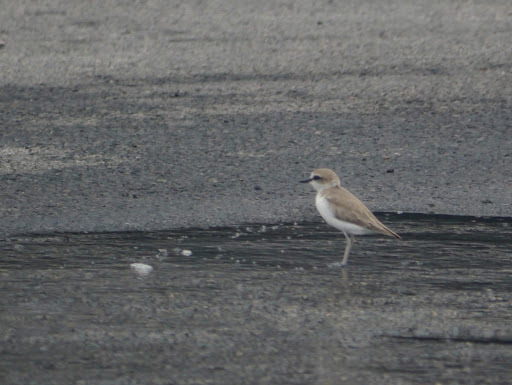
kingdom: Animalia
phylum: Chordata
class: Aves
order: Charadriiformes
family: Charadriidae
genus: Anarhynchus
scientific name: Anarhynchus
